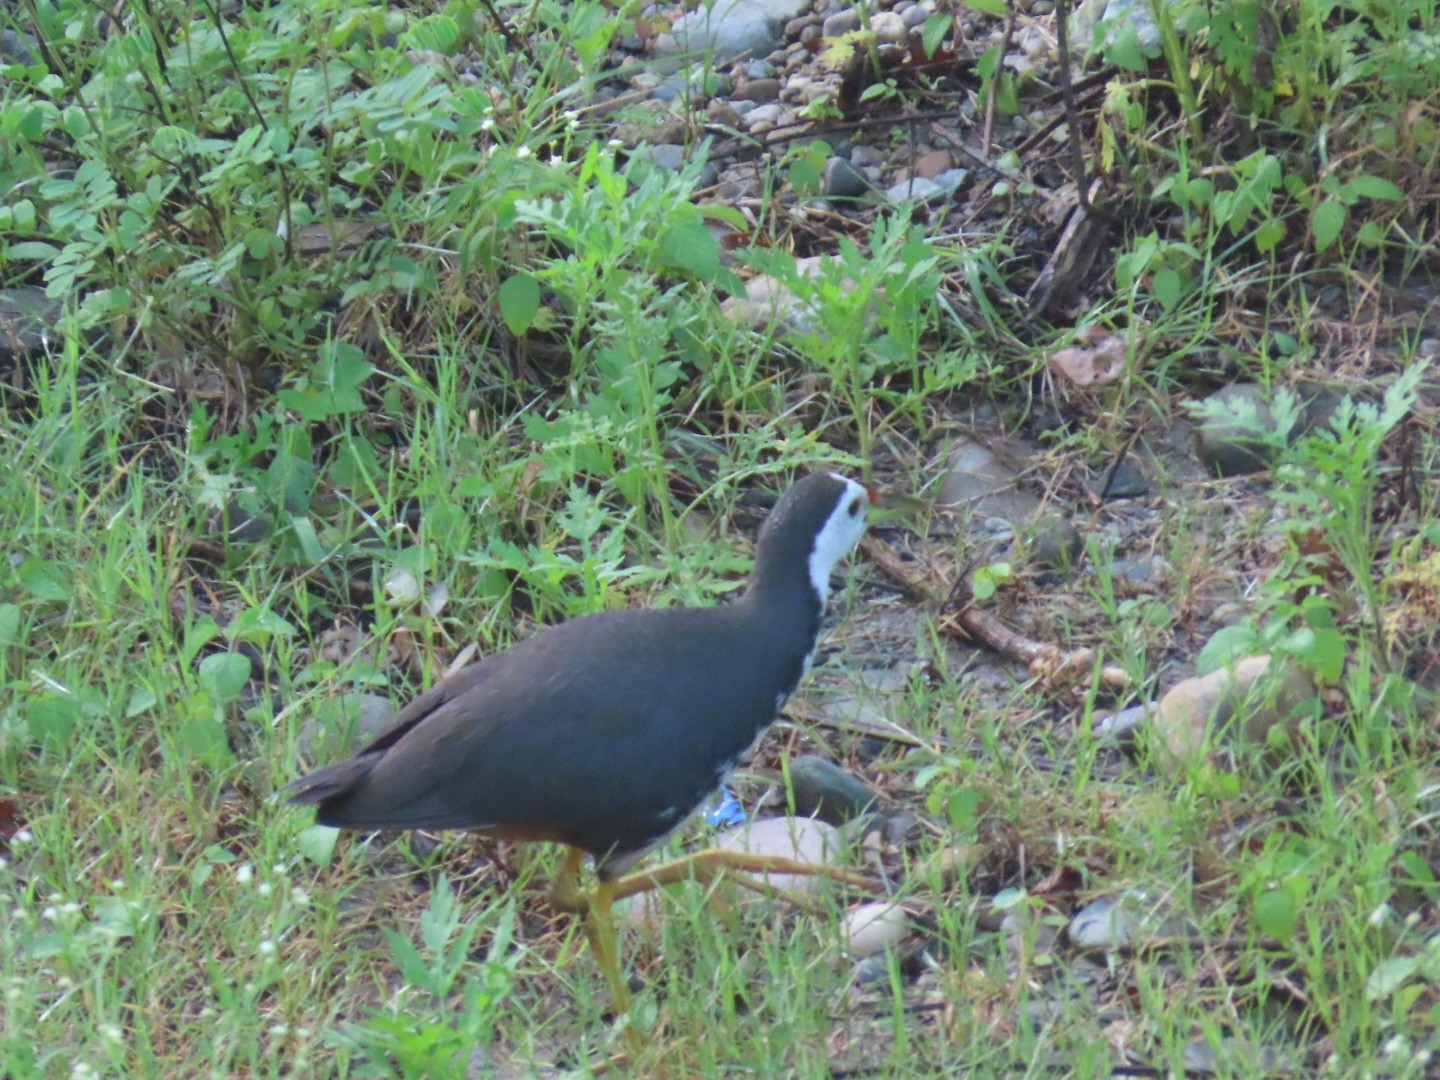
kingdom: Animalia
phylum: Chordata
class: Aves
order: Gruiformes
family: Rallidae
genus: Amaurornis
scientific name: Amaurornis phoenicurus
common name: White-breasted waterhen
